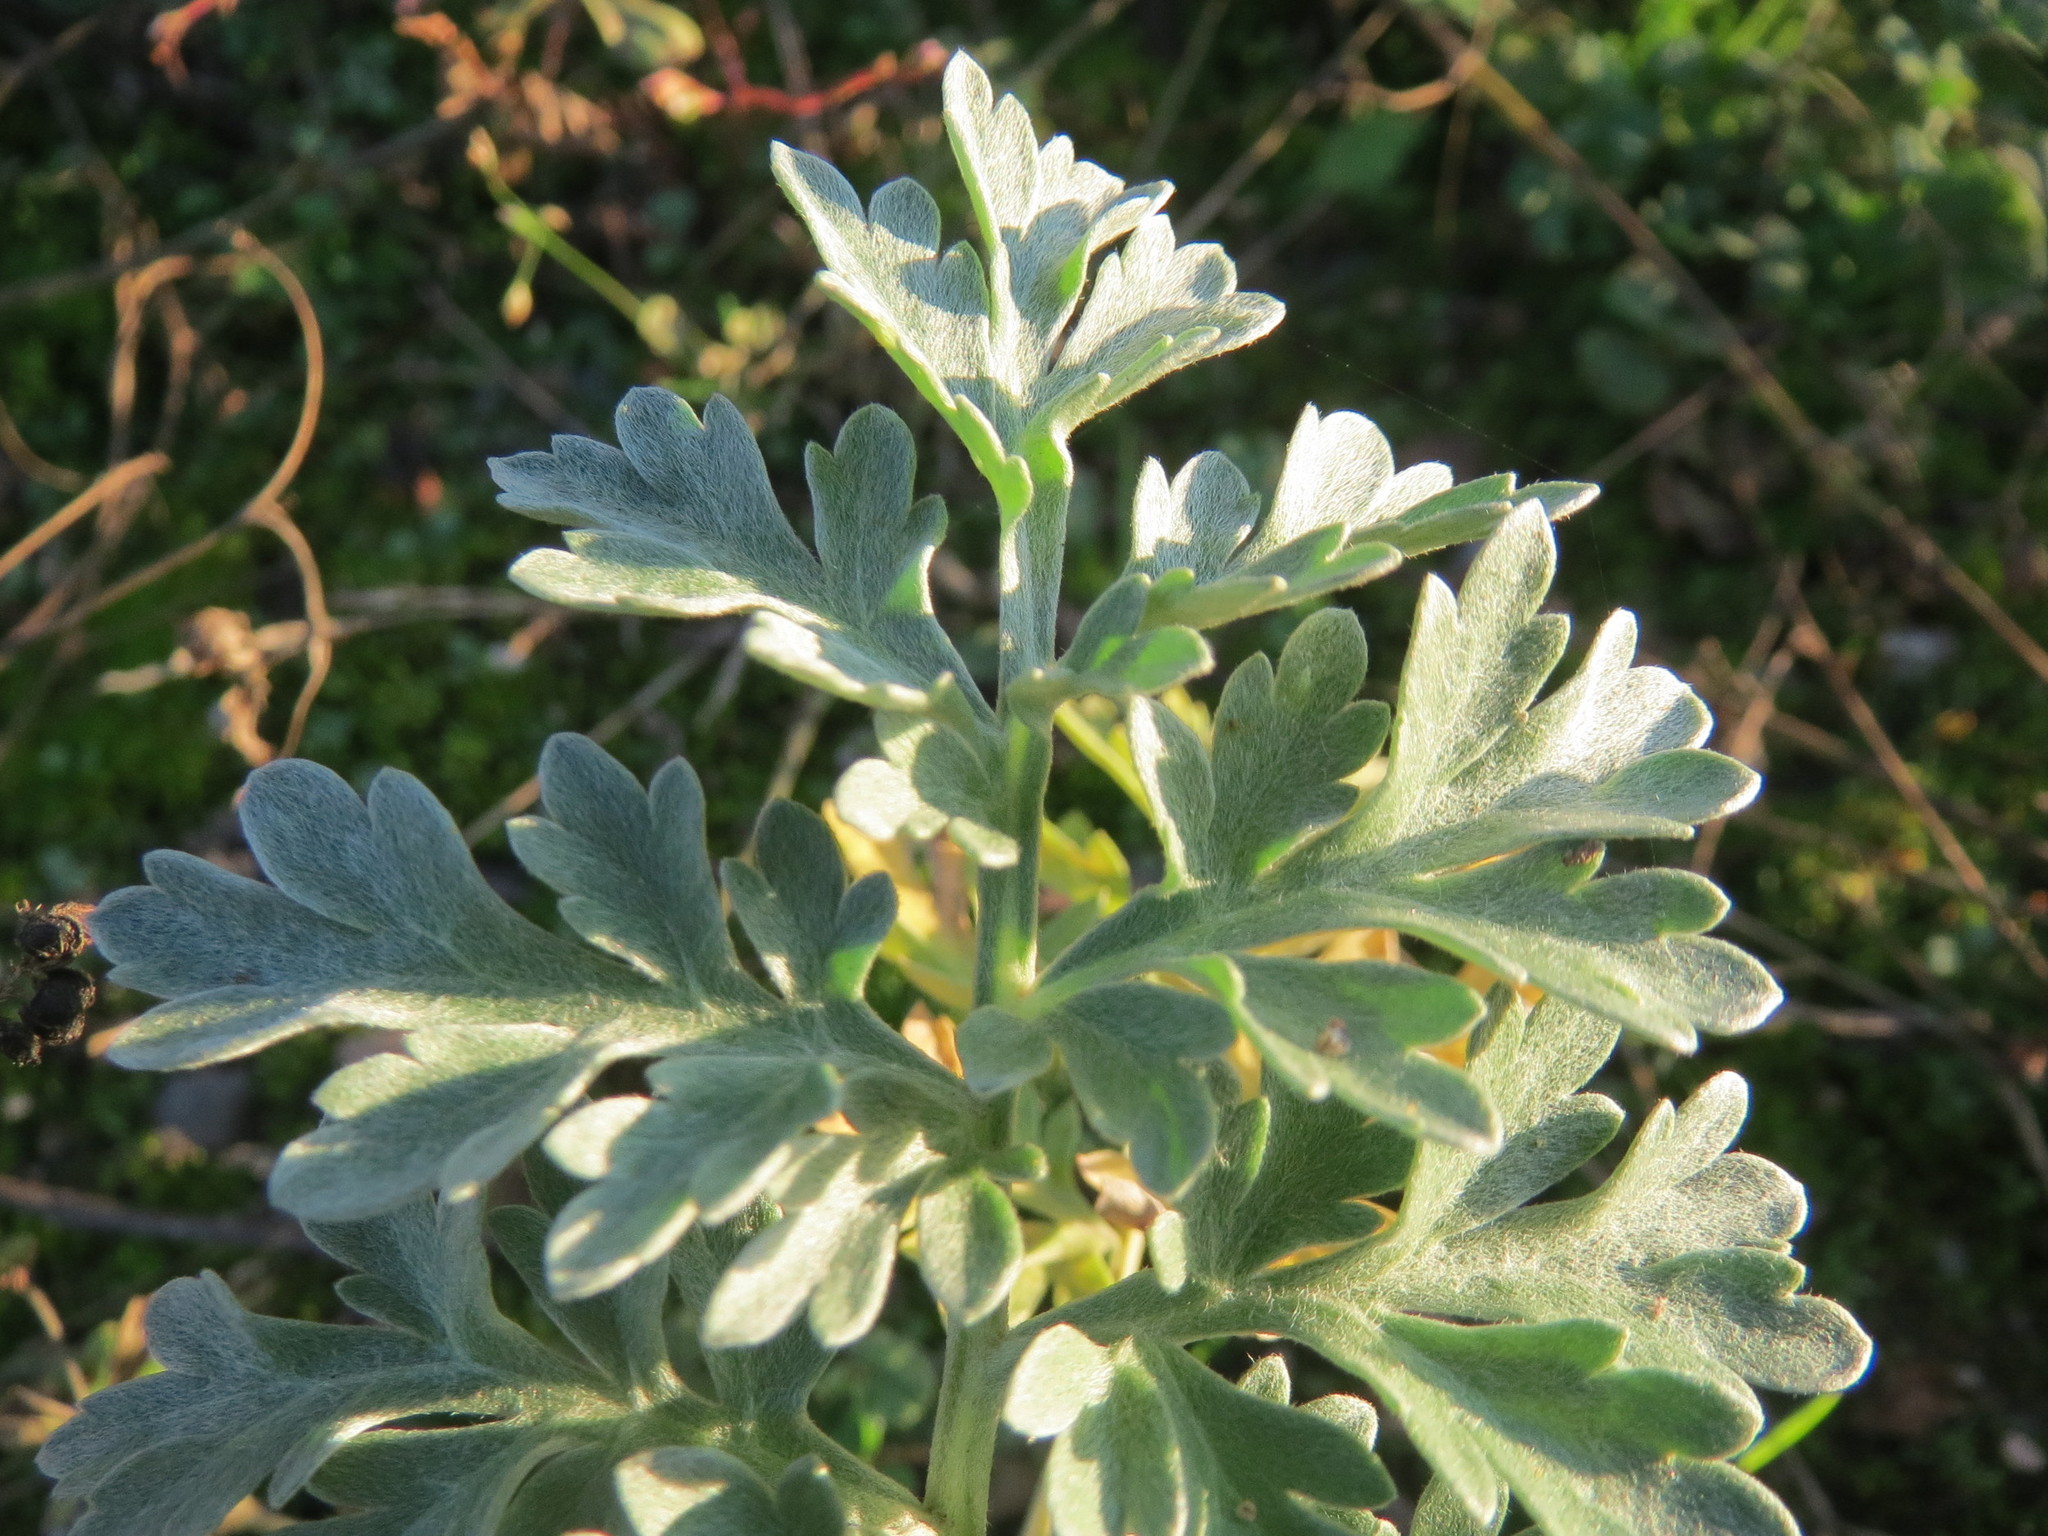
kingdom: Plantae
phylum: Tracheophyta
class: Magnoliopsida
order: Asterales
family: Asteraceae
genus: Artemisia
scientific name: Artemisia absinthium
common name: Wormwood
